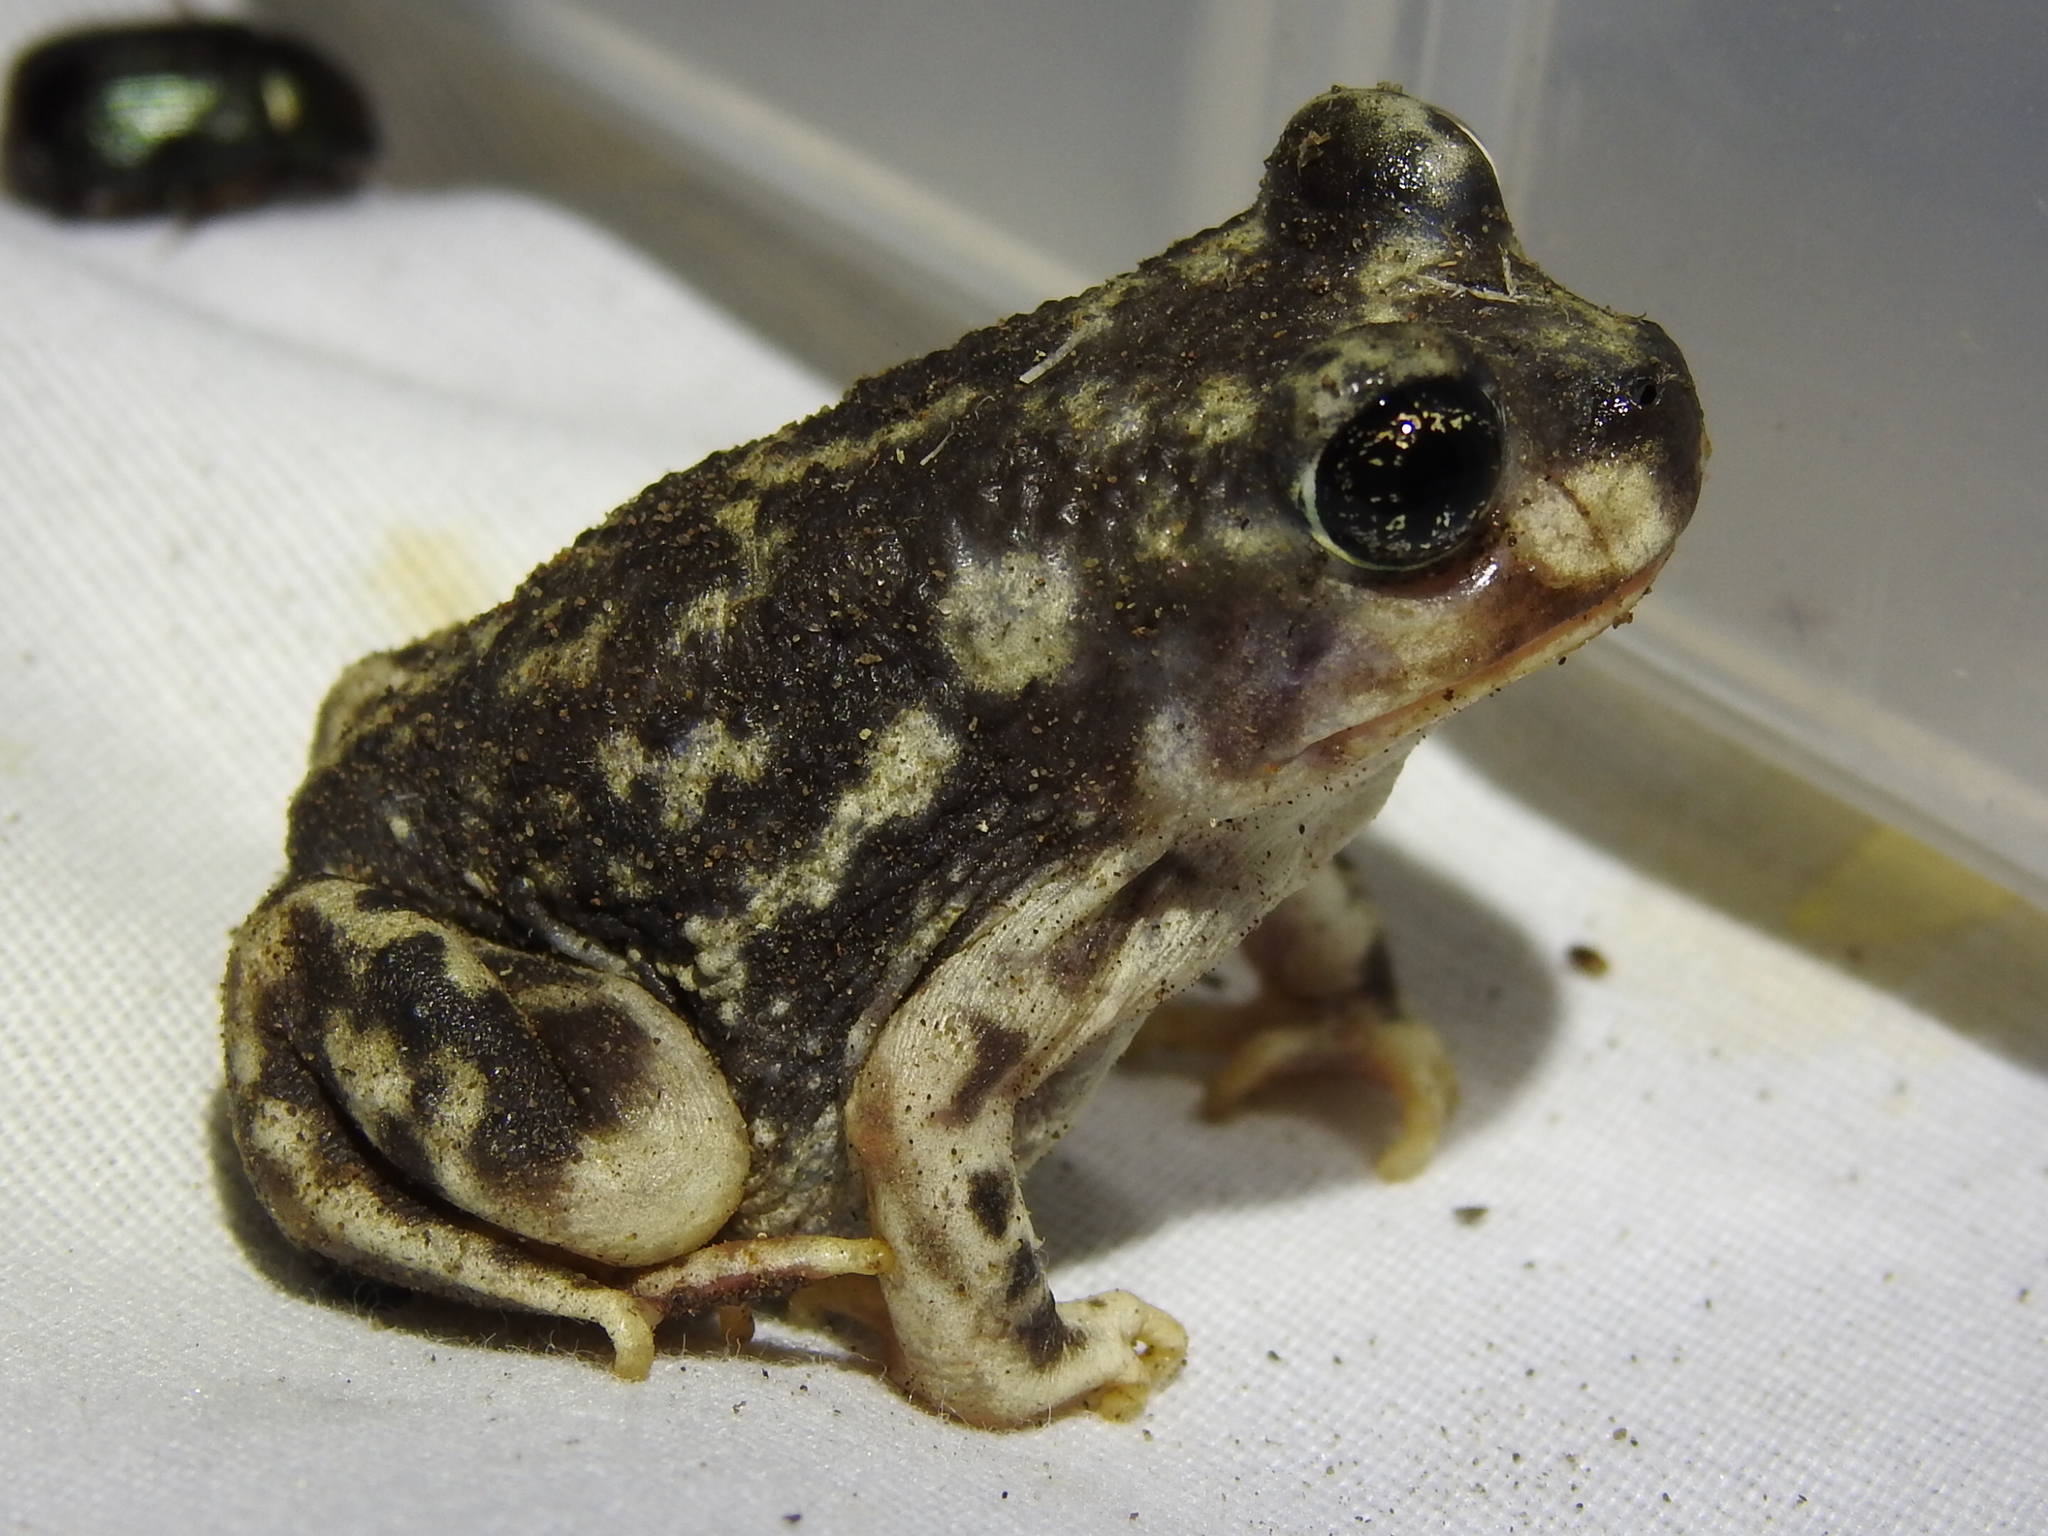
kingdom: Animalia
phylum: Chordata
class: Amphibia
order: Anura
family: Scaphiopodidae
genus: Scaphiopus
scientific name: Scaphiopus couchii
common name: Couch's spadefoot toad
